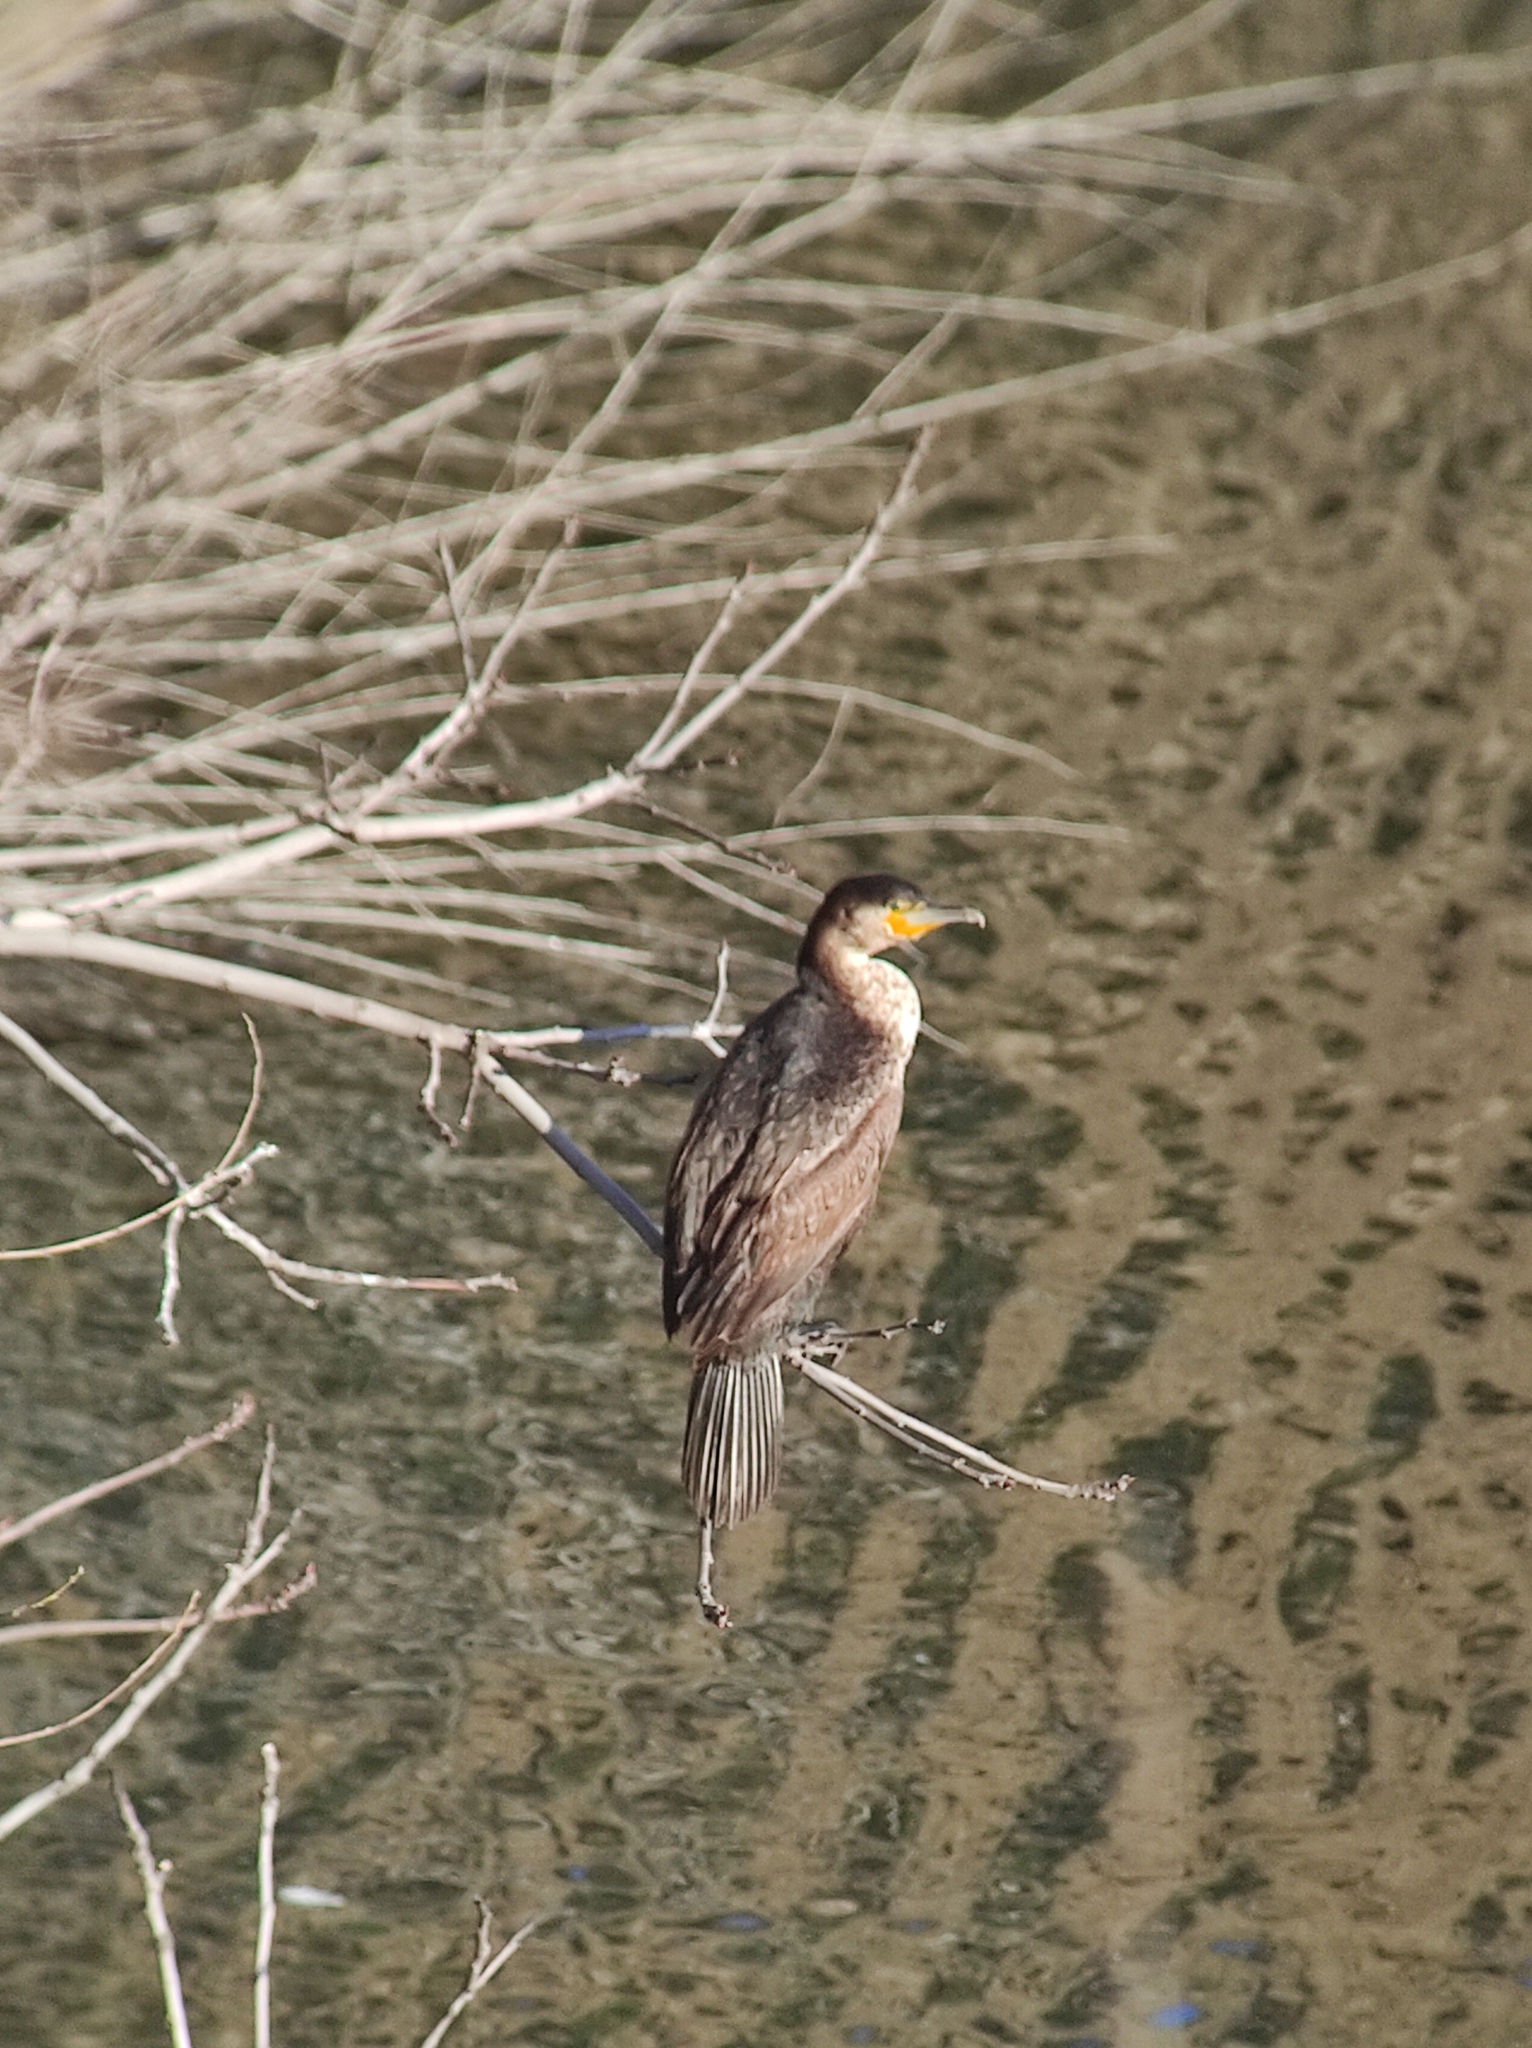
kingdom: Animalia
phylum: Chordata
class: Aves
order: Suliformes
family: Phalacrocoracidae
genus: Phalacrocorax
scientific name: Phalacrocorax carbo
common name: Great cormorant
